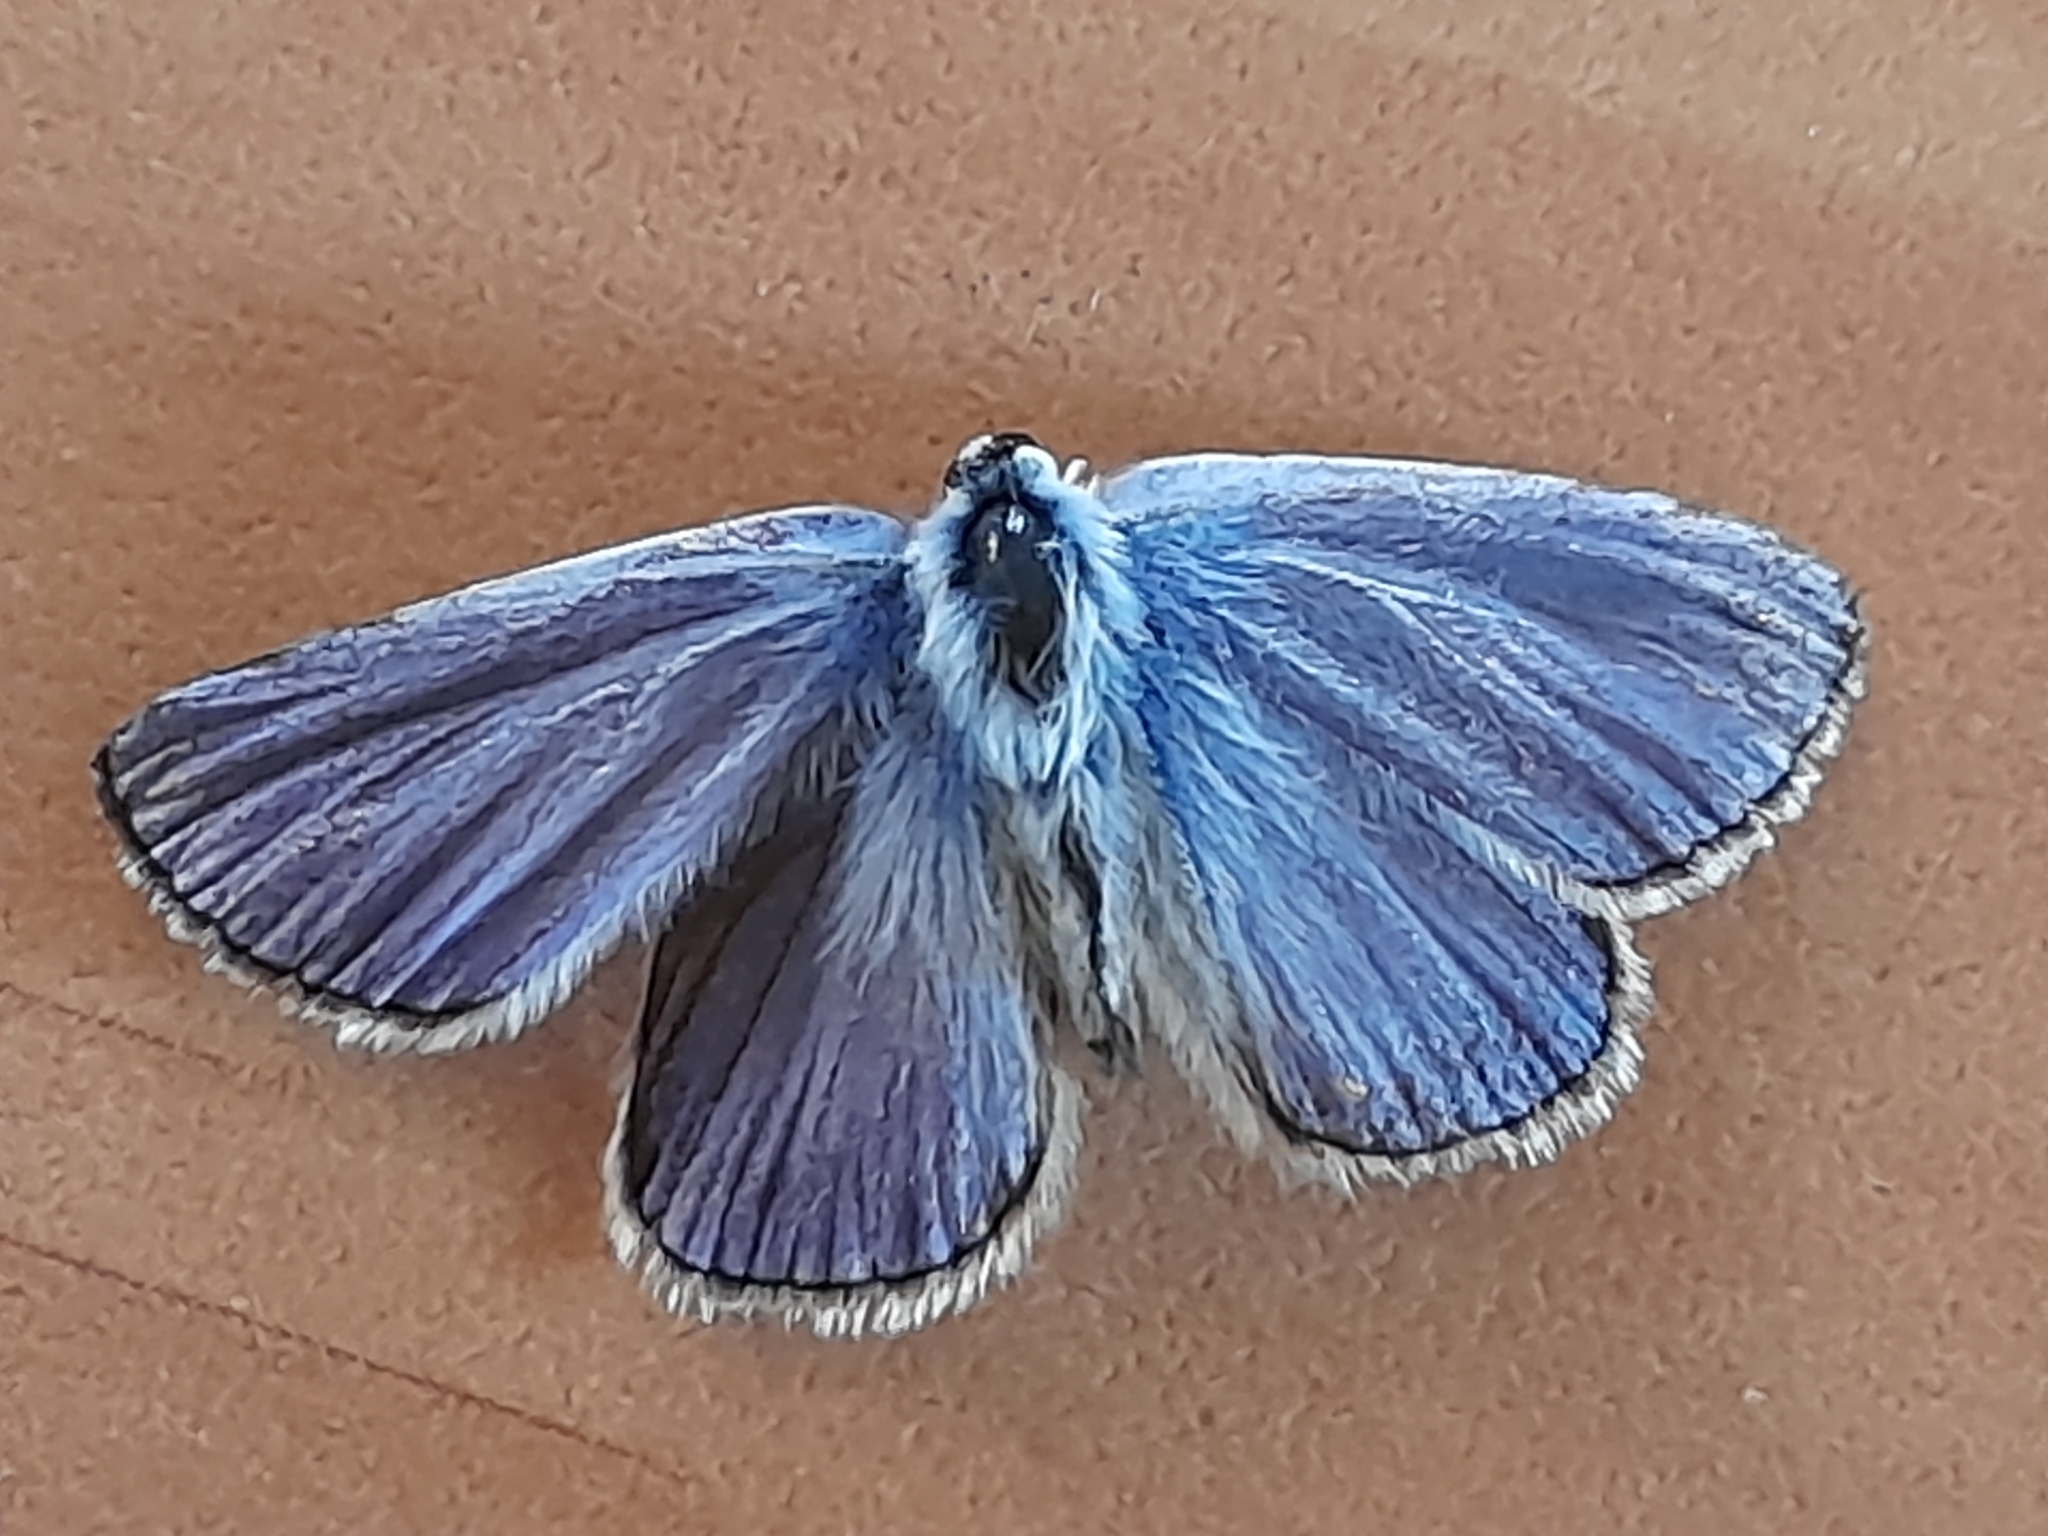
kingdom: Animalia
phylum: Arthropoda
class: Insecta
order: Lepidoptera
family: Lycaenidae
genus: Polyommatus
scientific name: Polyommatus thersites
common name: Chapman's blue
